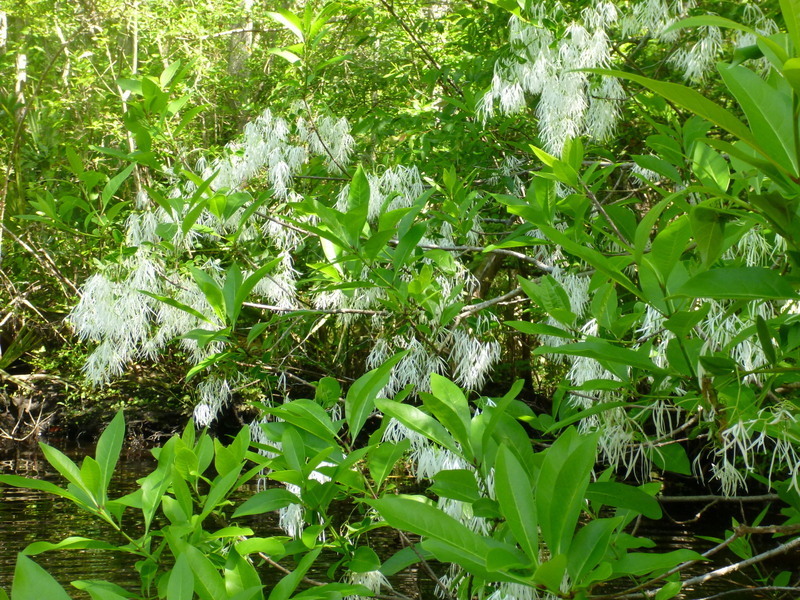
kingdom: Plantae
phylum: Tracheophyta
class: Magnoliopsida
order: Lamiales
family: Oleaceae
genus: Chionanthus
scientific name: Chionanthus virginicus
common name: American fringetree
